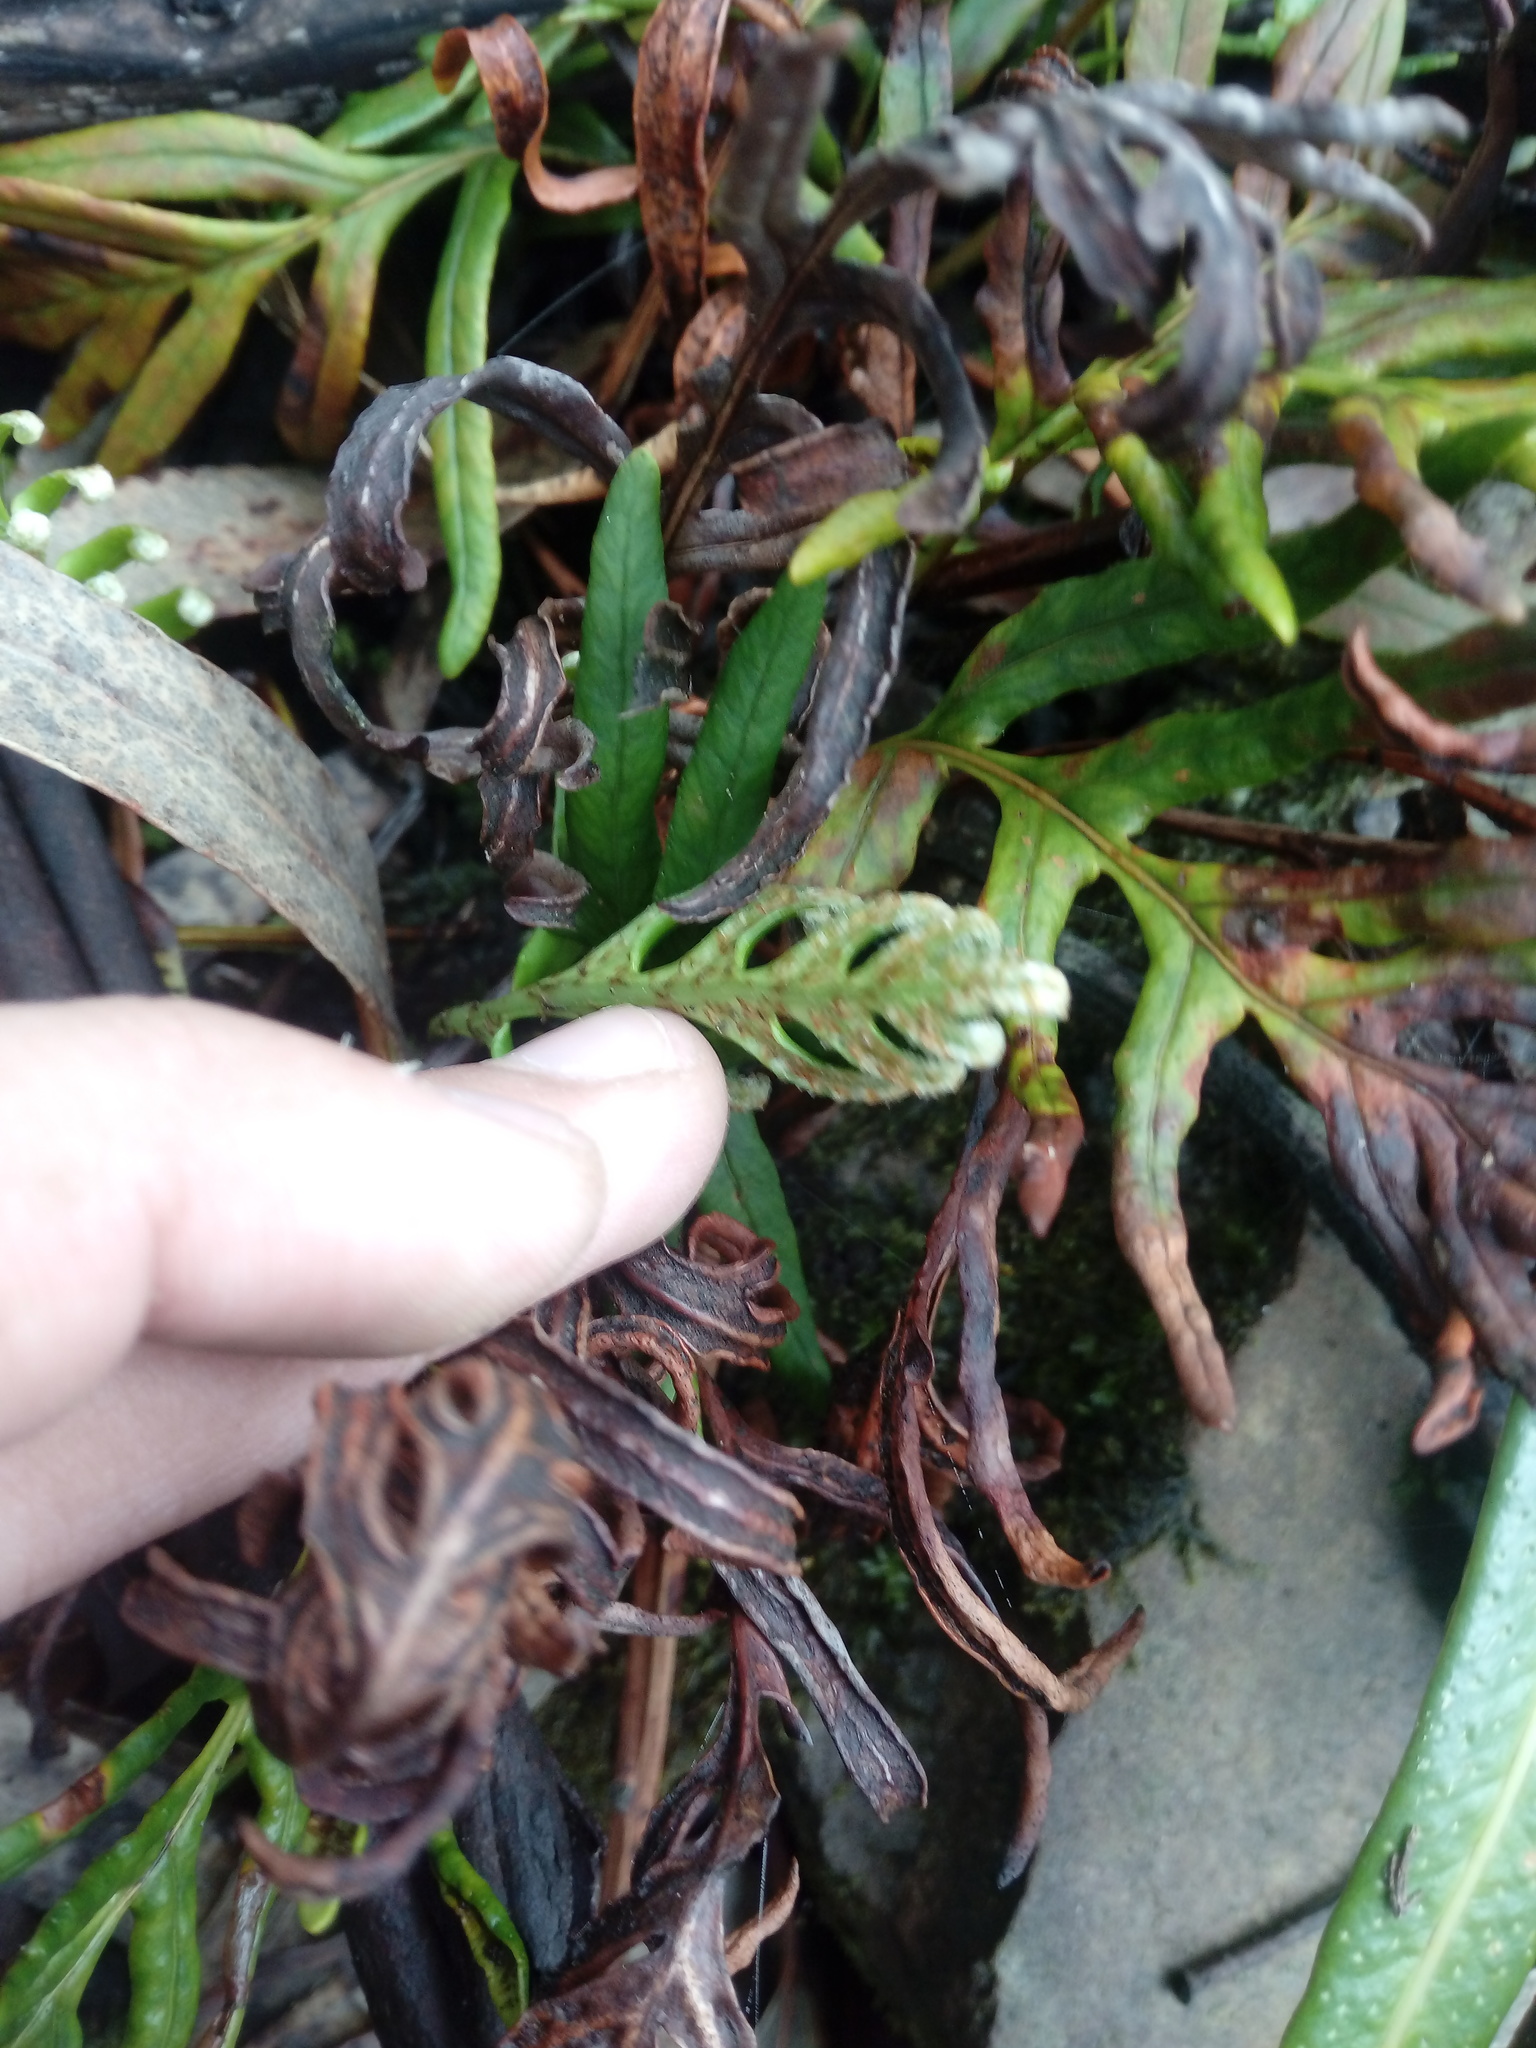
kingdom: Plantae
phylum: Tracheophyta
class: Polypodiopsida
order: Polypodiales
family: Polypodiaceae
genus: Pleopeltis
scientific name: Pleopeltis orientalis
